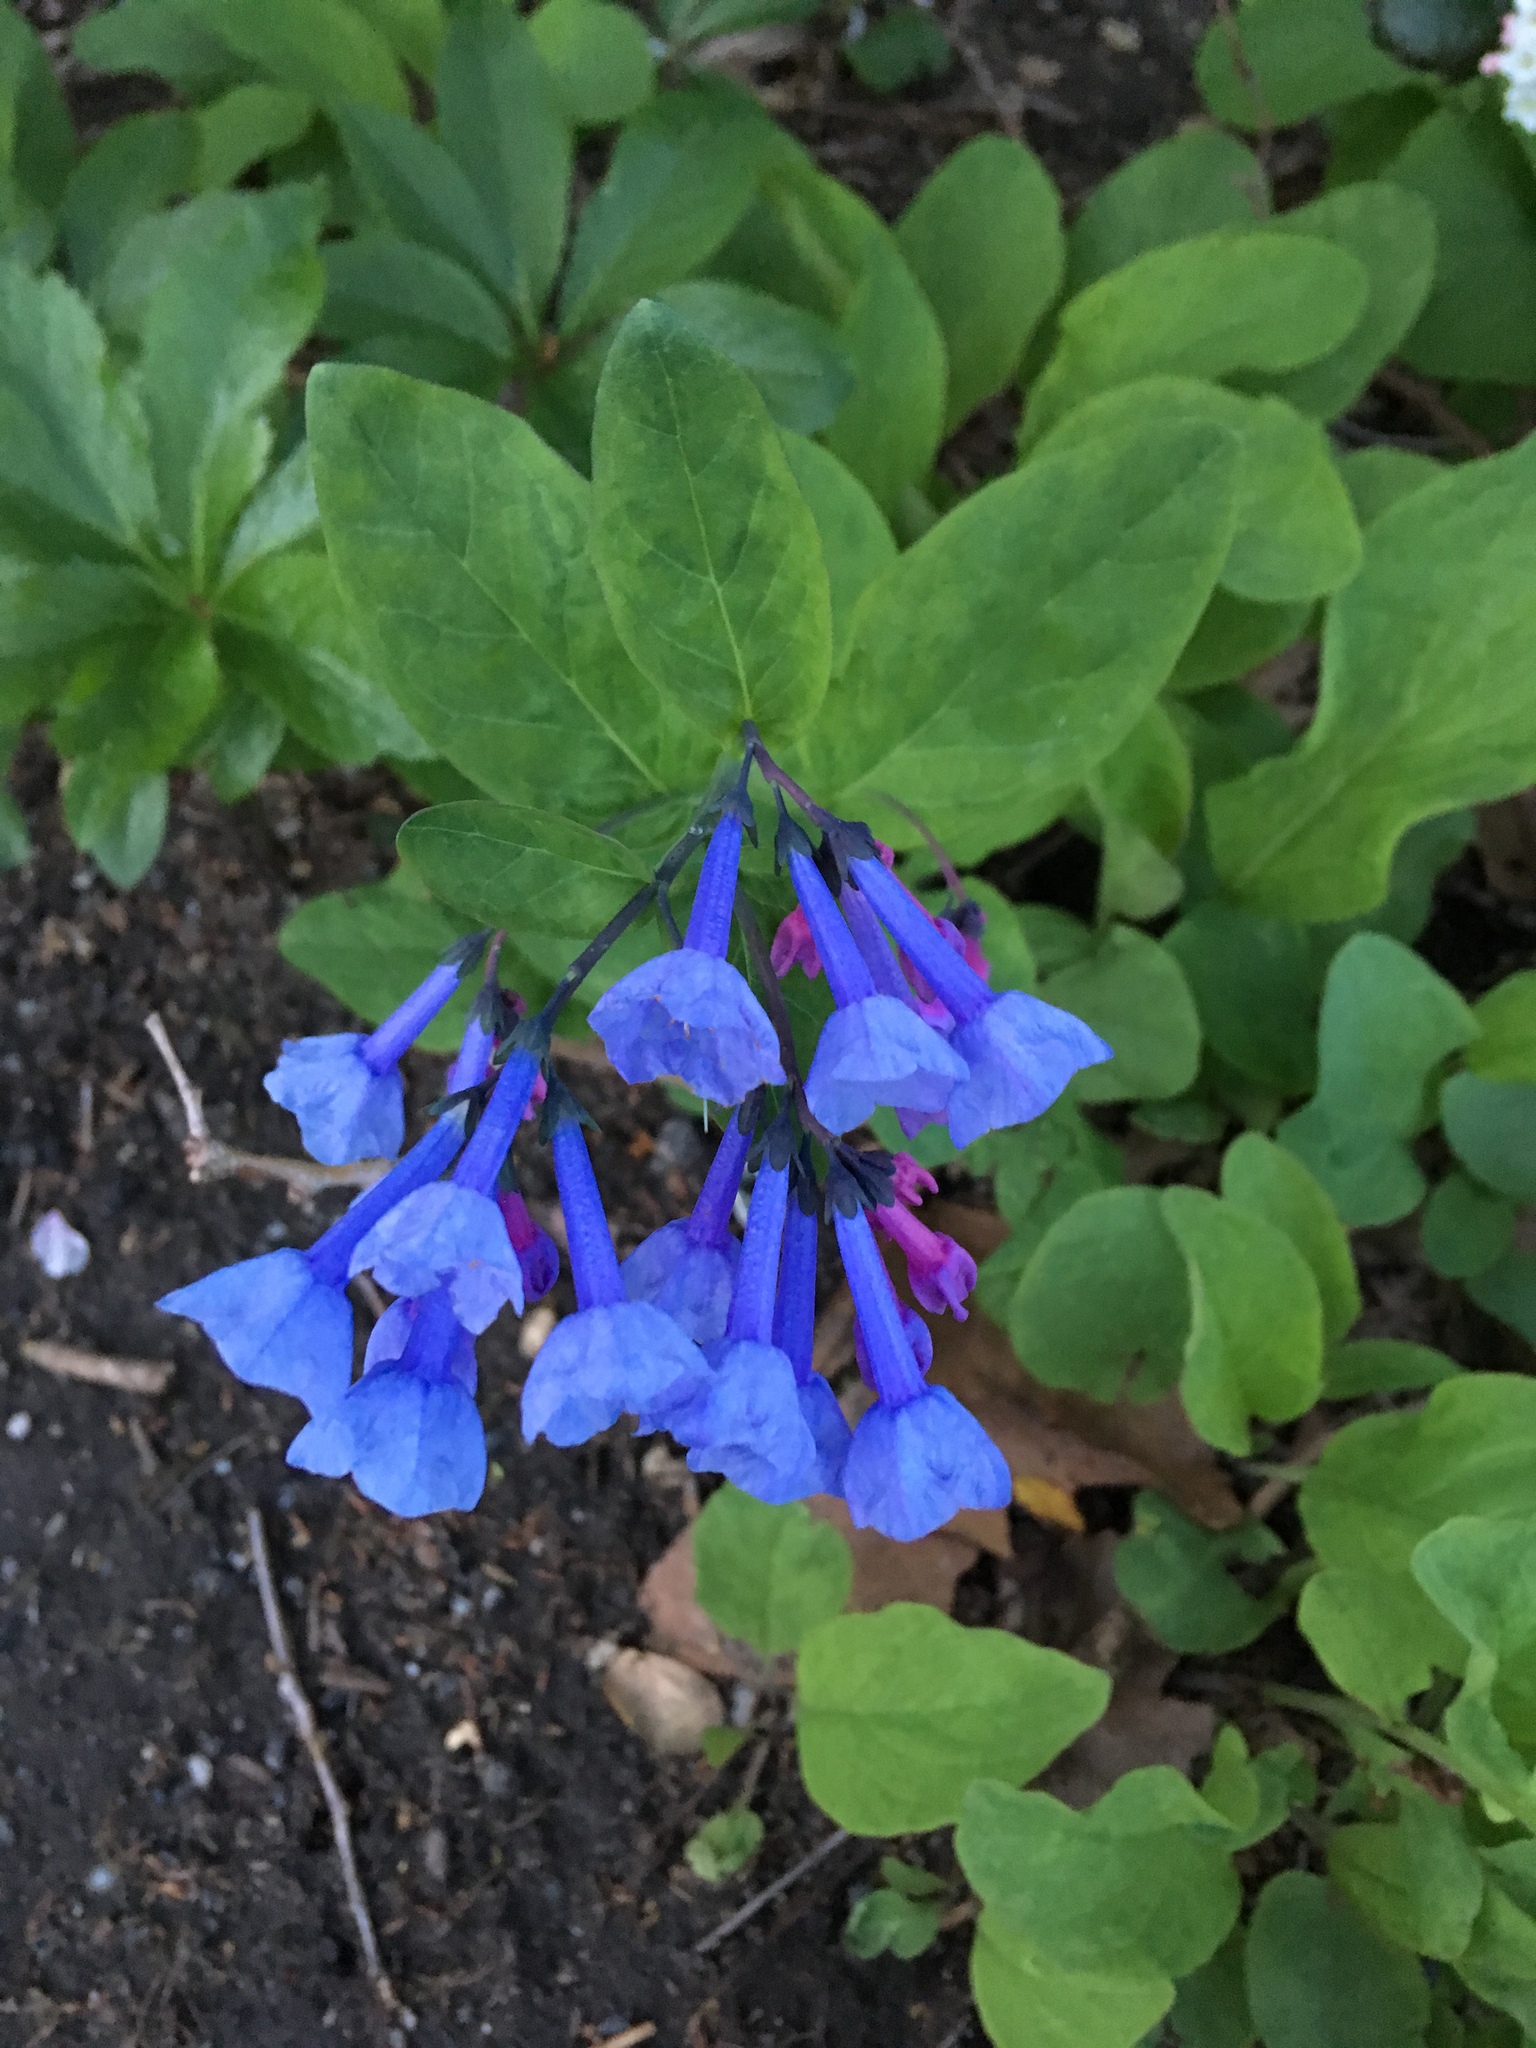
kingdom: Plantae
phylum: Tracheophyta
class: Magnoliopsida
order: Boraginales
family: Boraginaceae
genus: Mertensia
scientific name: Mertensia virginica
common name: Virginia bluebells
